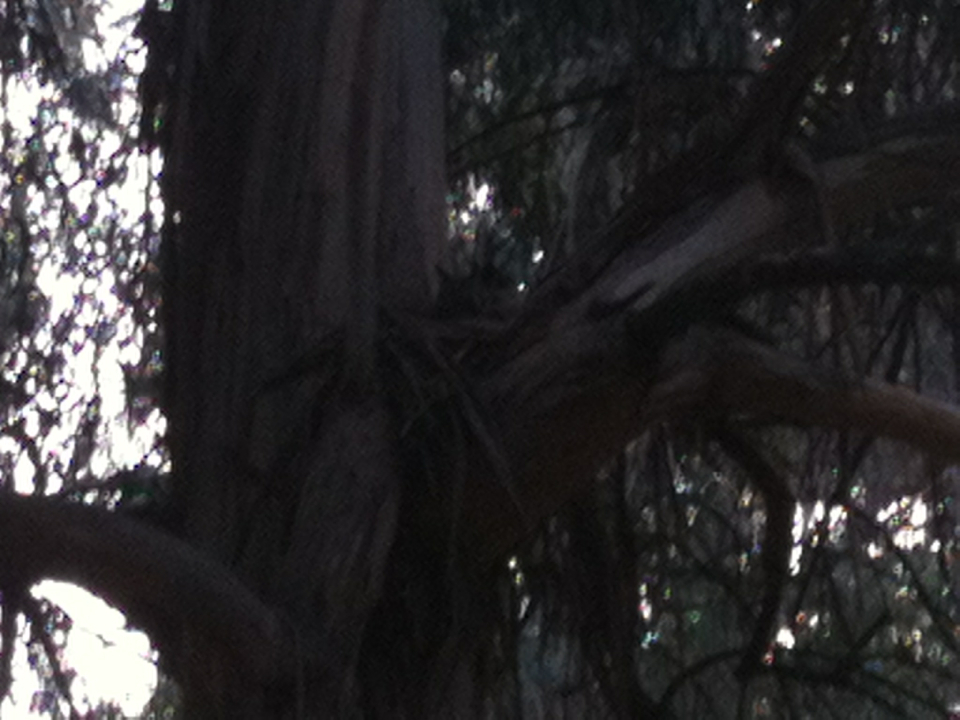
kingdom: Animalia
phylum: Chordata
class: Aves
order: Strigiformes
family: Strigidae
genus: Bubo
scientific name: Bubo virginianus
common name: Great horned owl
